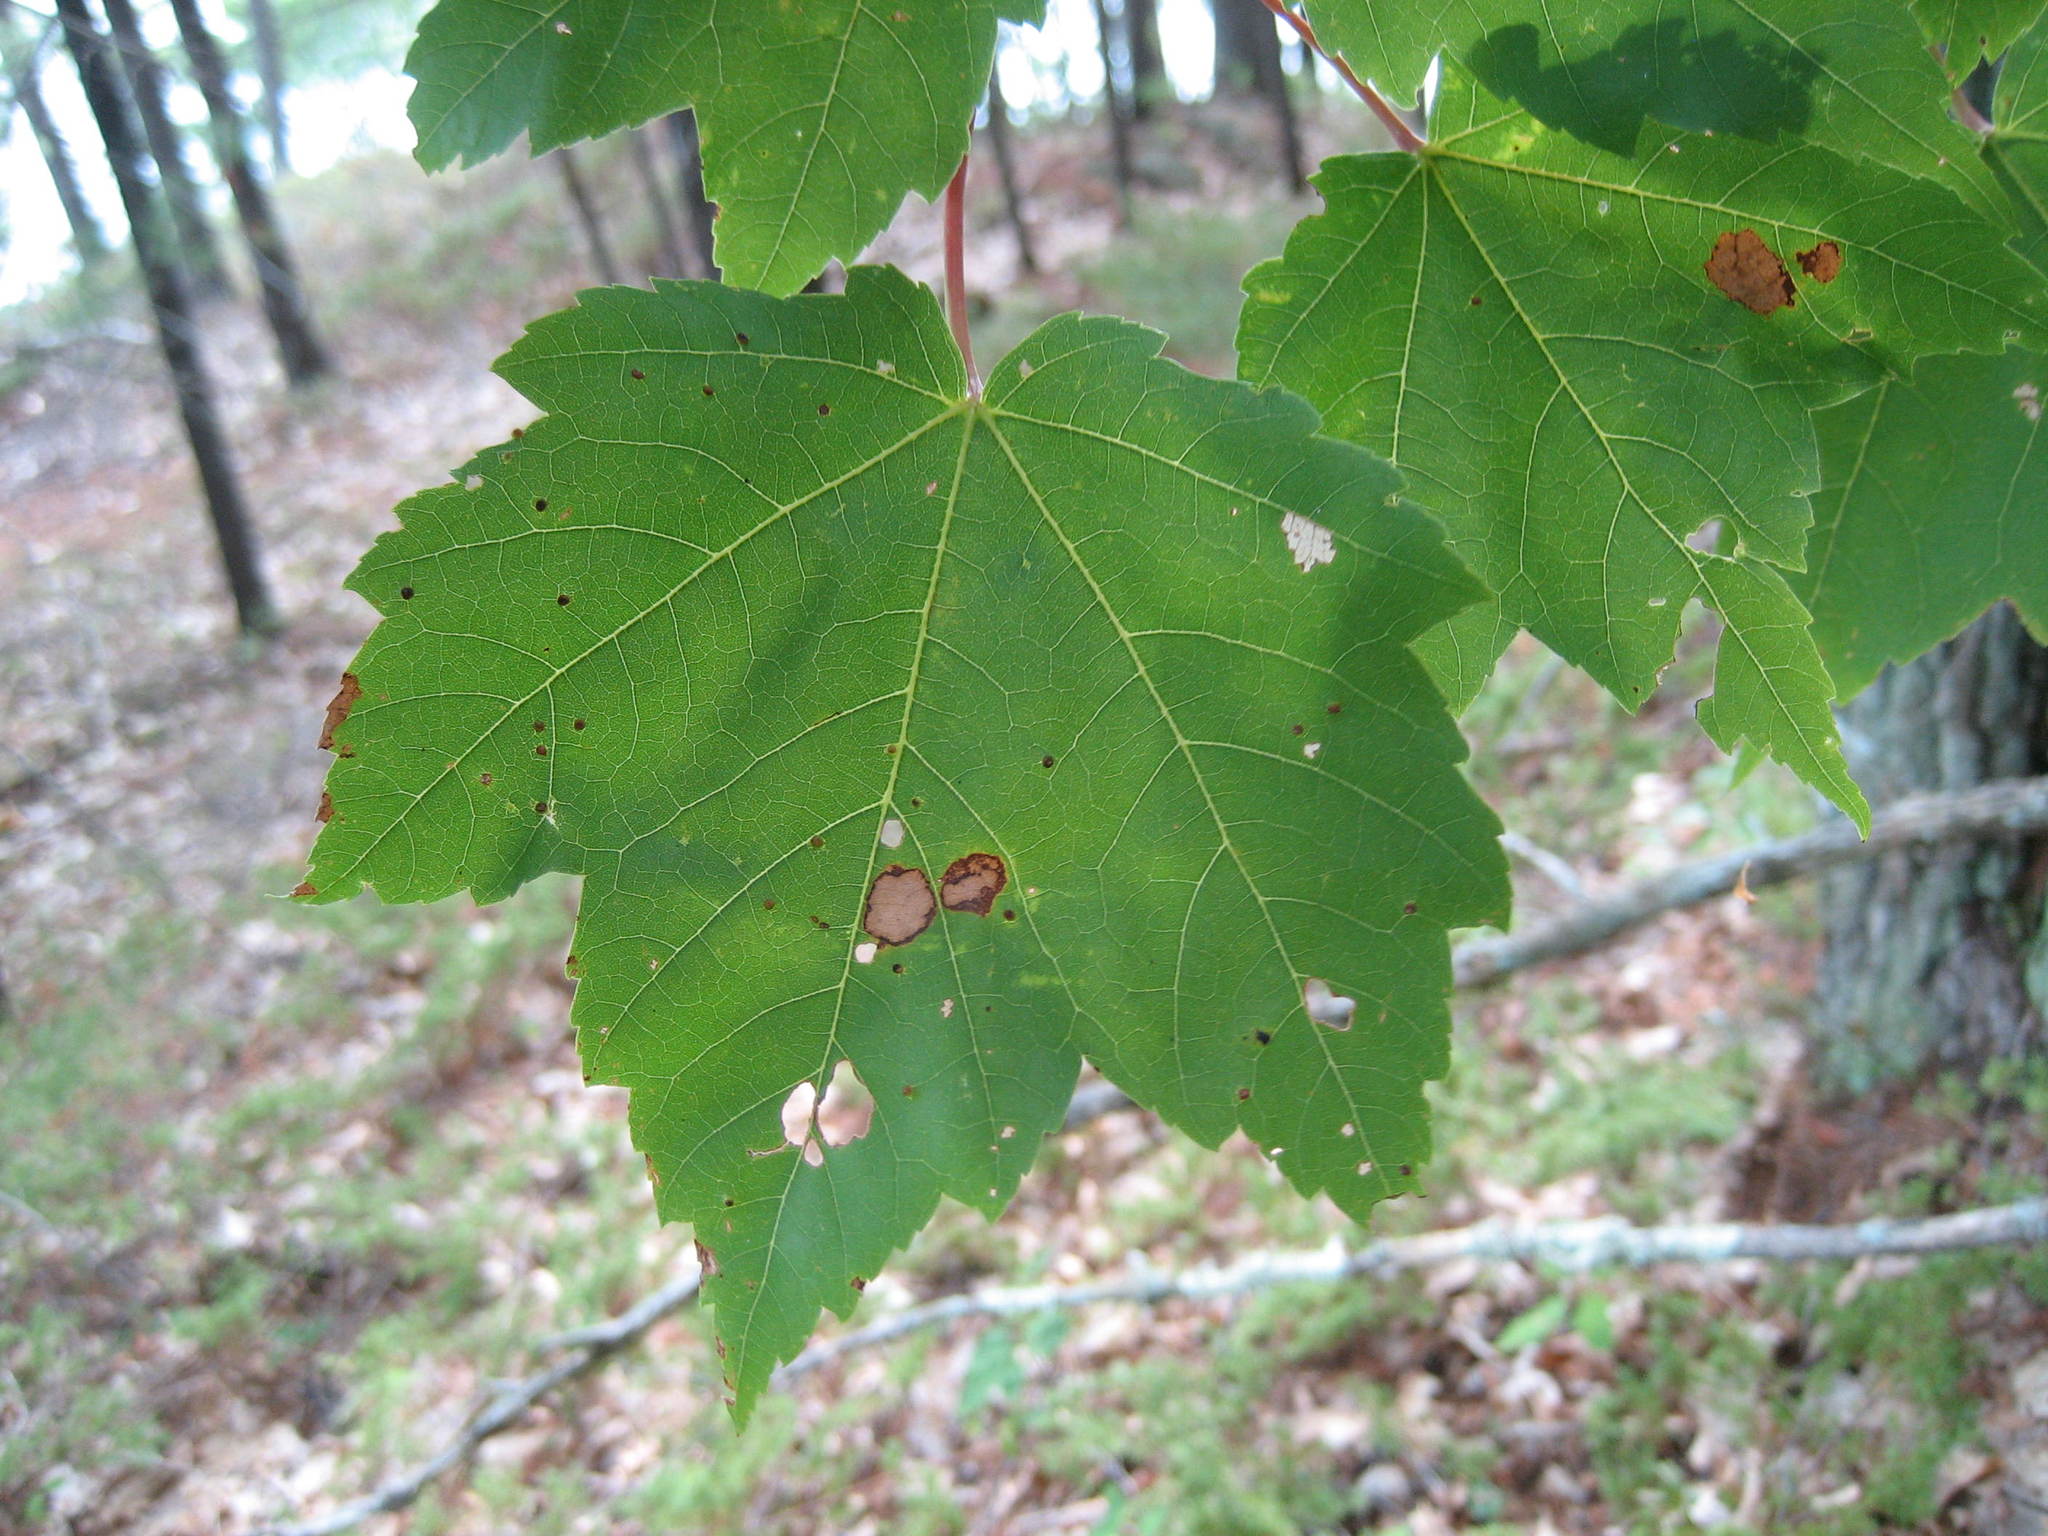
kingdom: Plantae
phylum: Tracheophyta
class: Magnoliopsida
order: Sapindales
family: Sapindaceae
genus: Acer
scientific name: Acer rubrum
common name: Red maple
